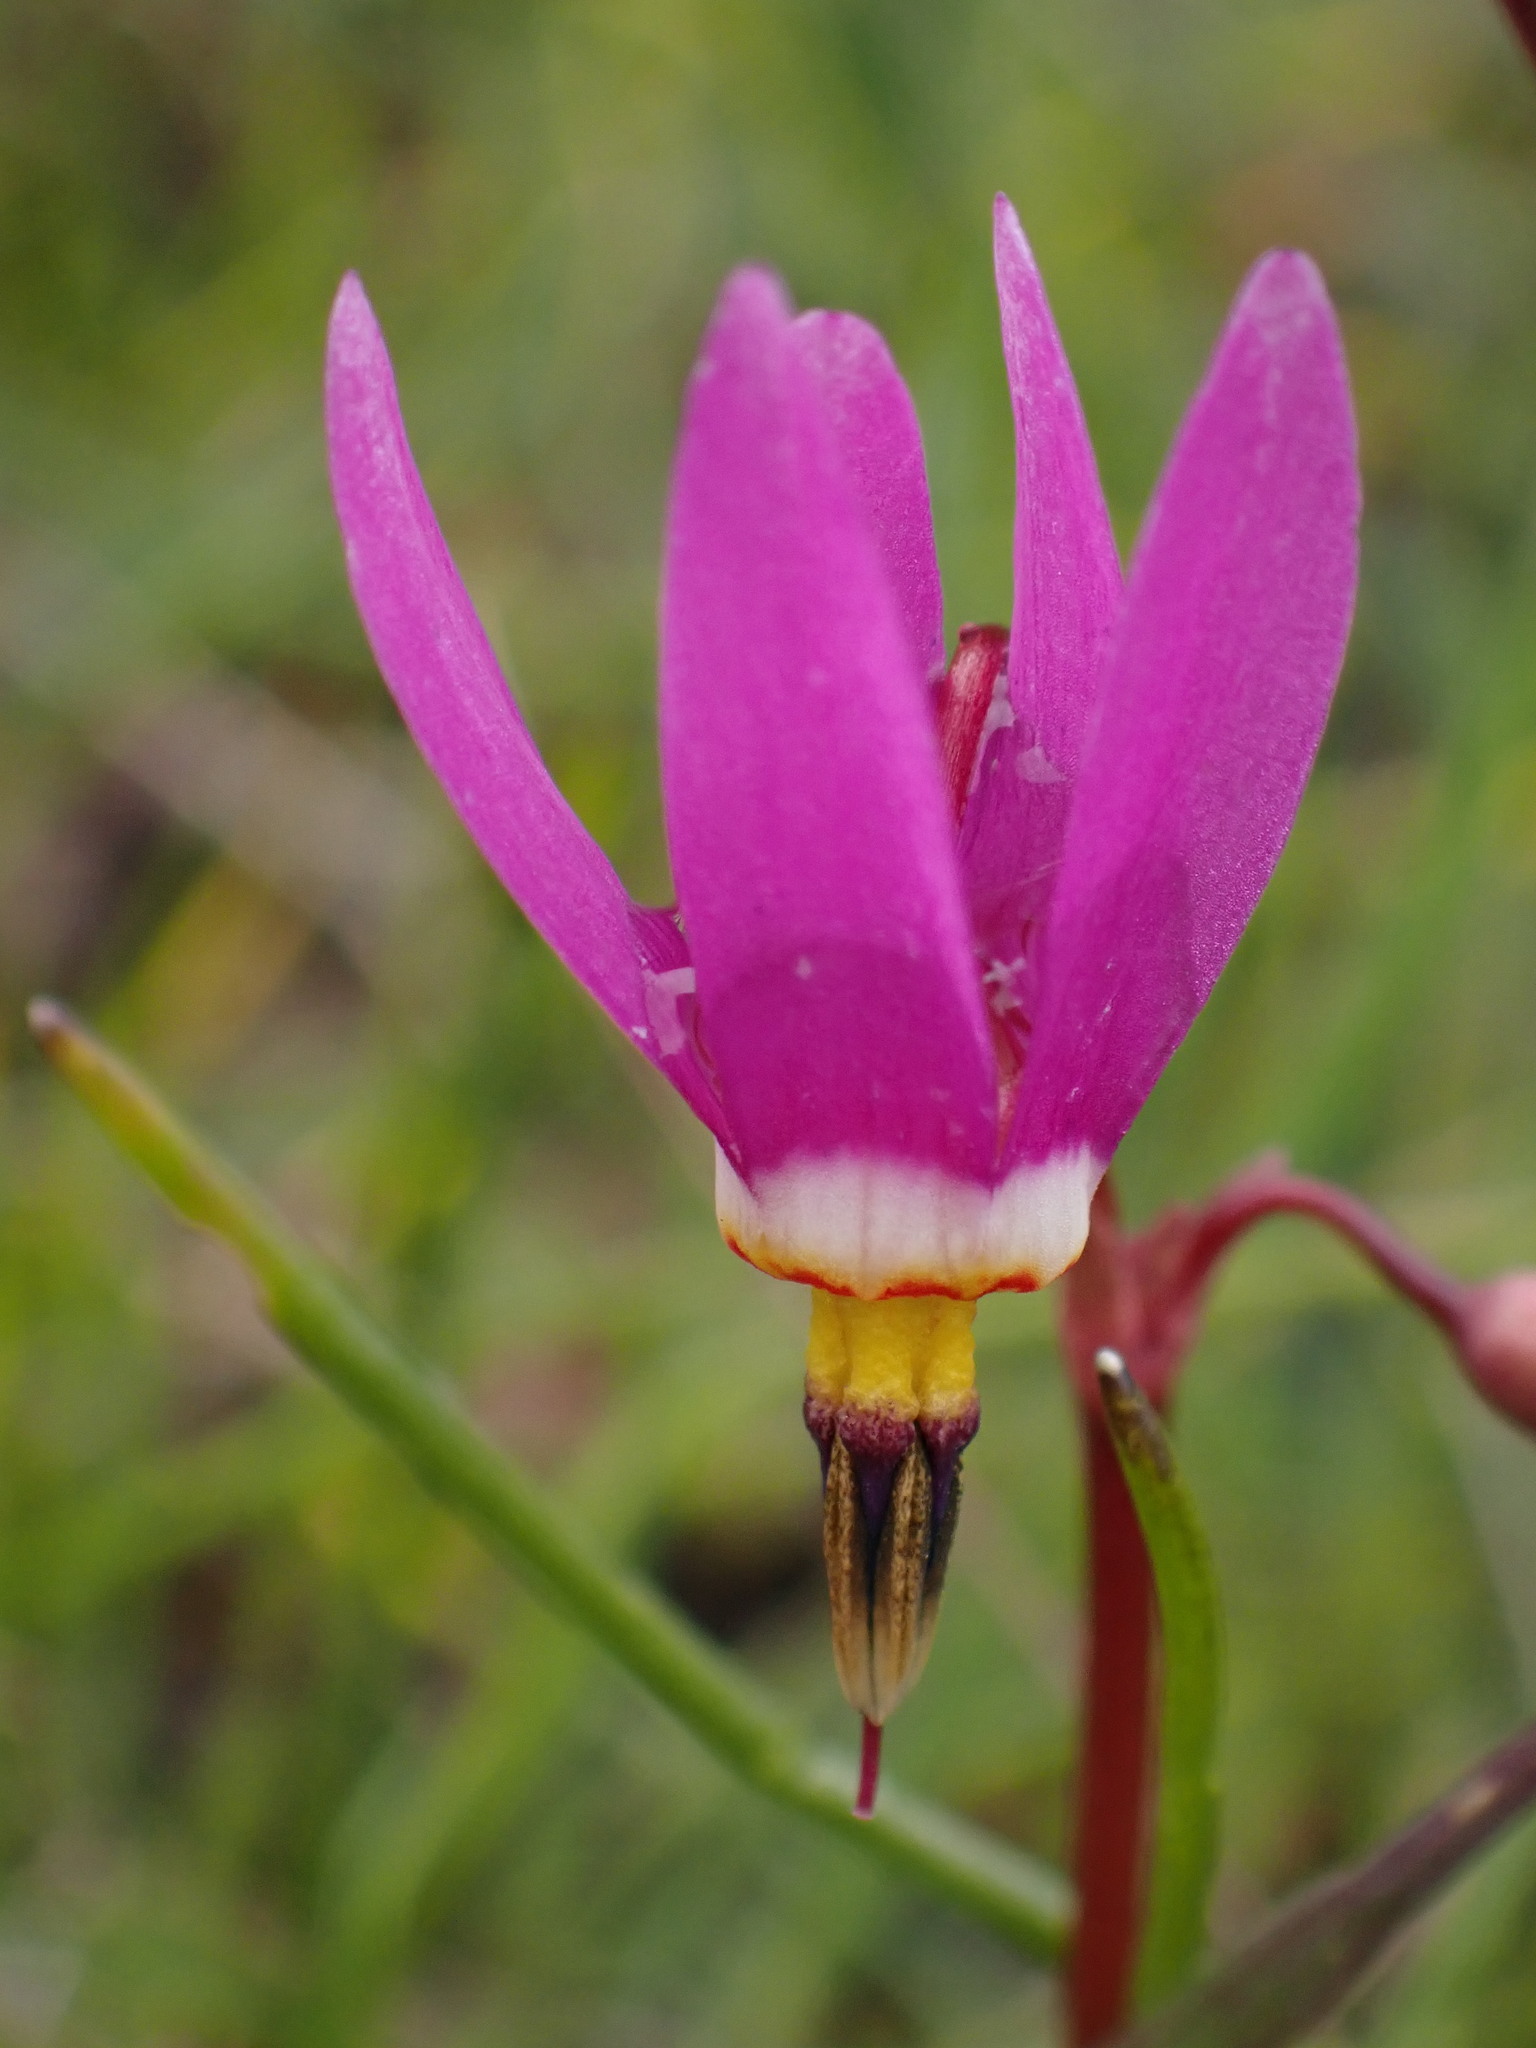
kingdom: Plantae
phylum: Tracheophyta
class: Magnoliopsida
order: Ericales
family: Primulaceae
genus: Dodecatheon
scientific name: Dodecatheon pulchellum
